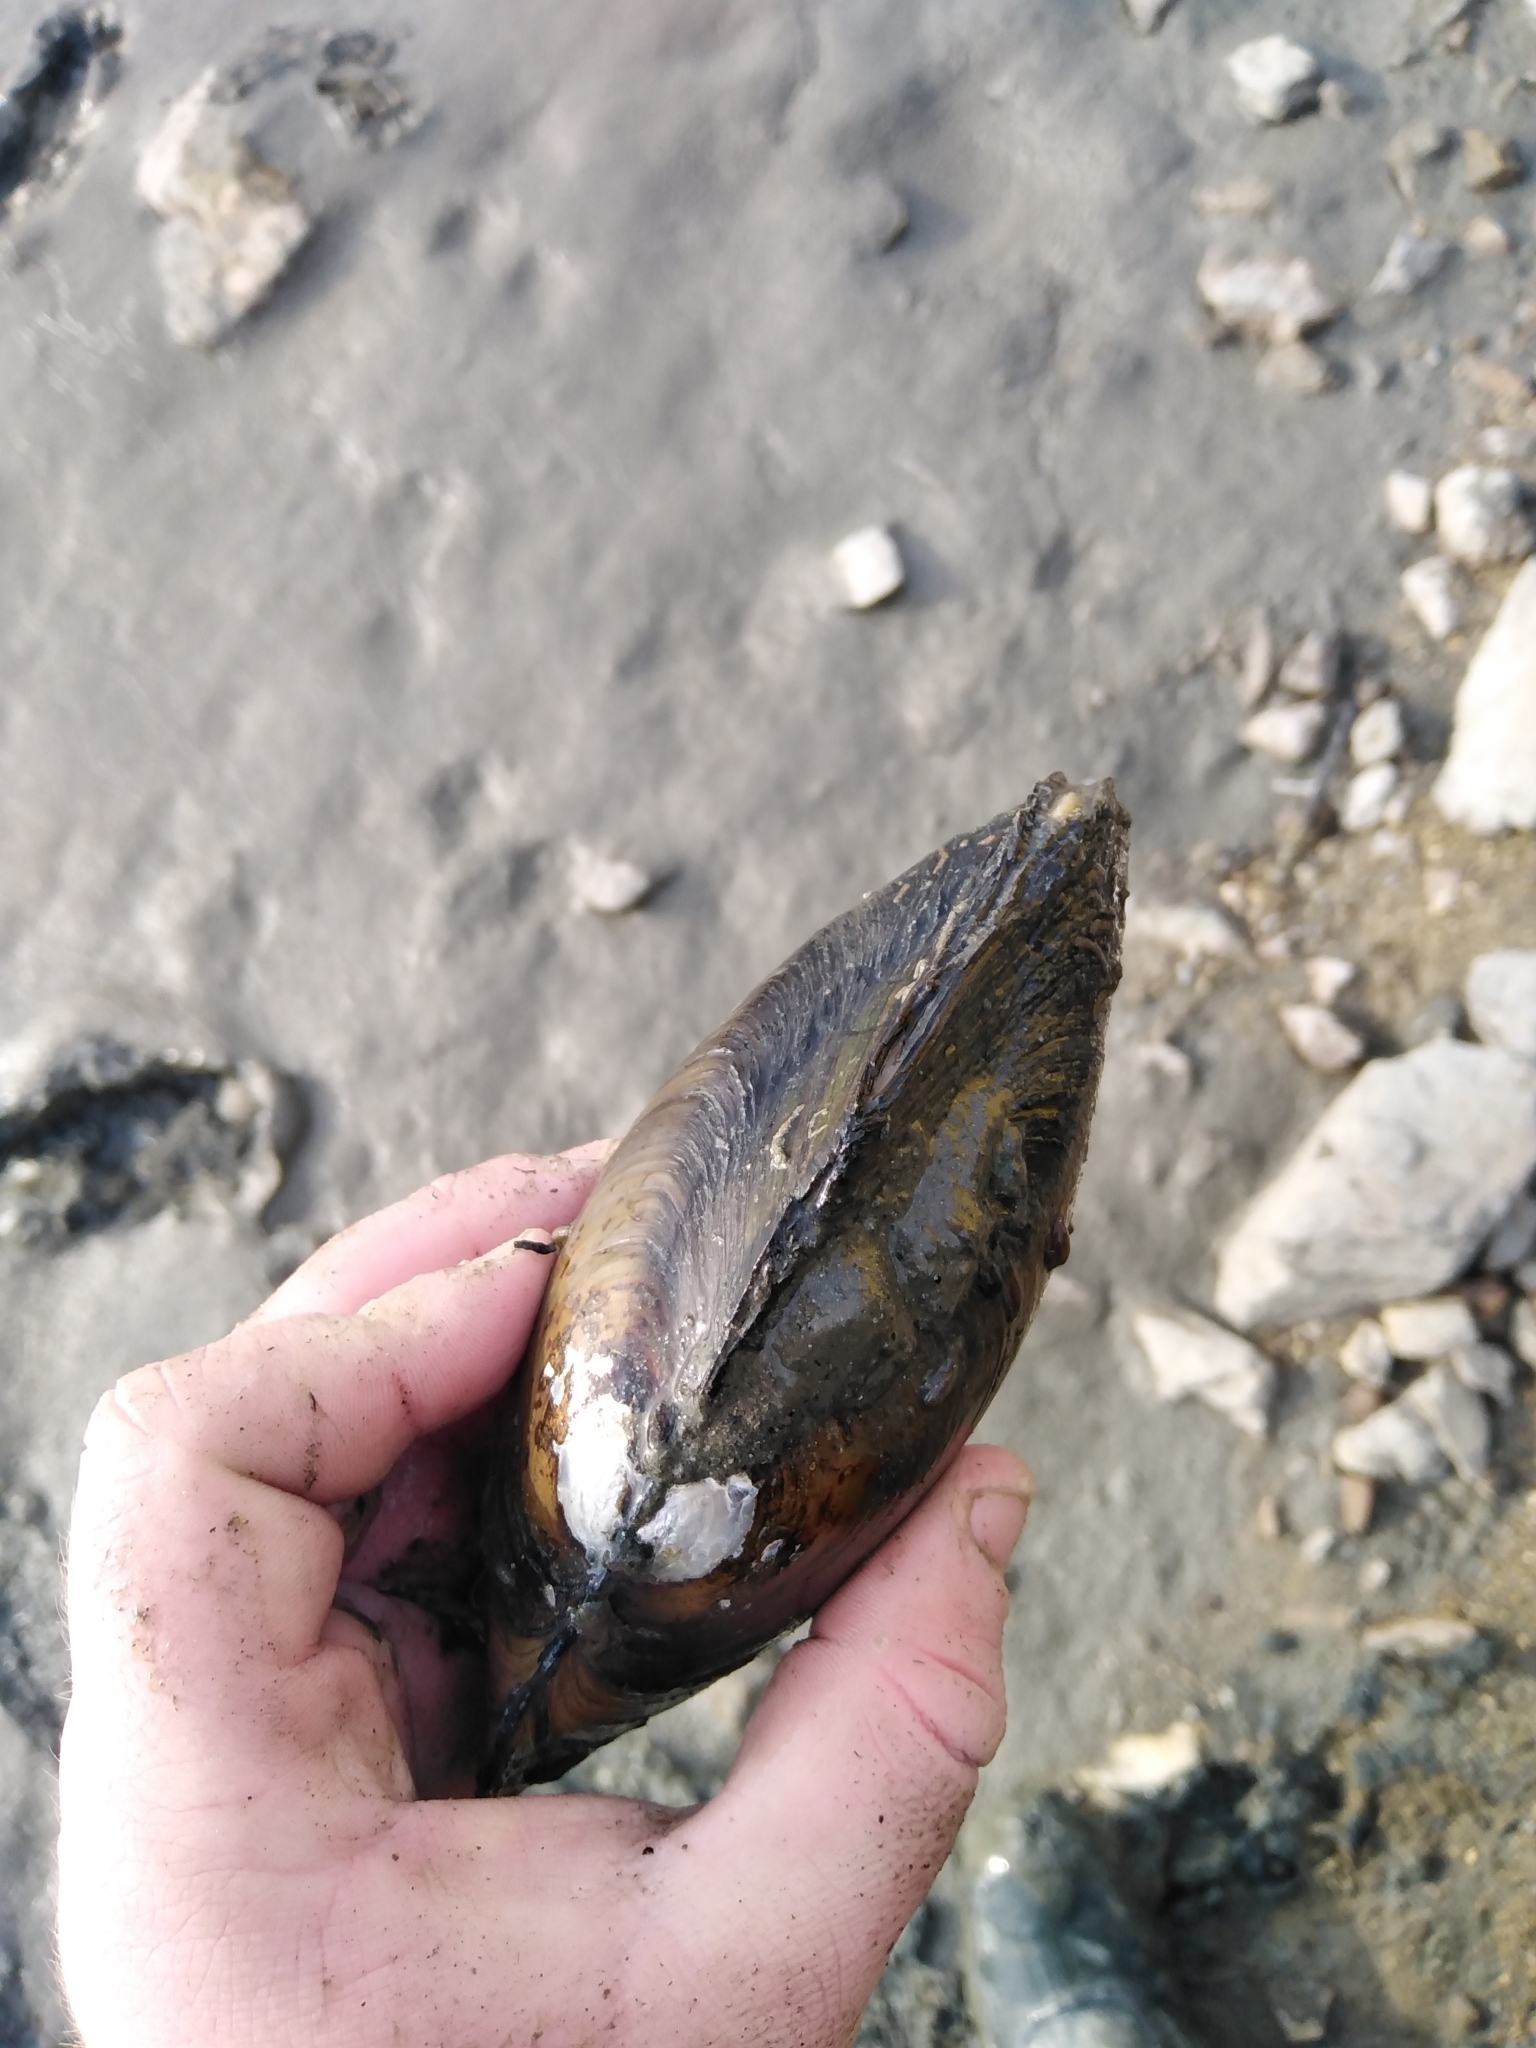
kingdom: Animalia
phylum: Mollusca
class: Bivalvia
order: Unionida
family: Unionidae
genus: Anodonta
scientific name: Anodonta anatina
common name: Duck mussel
